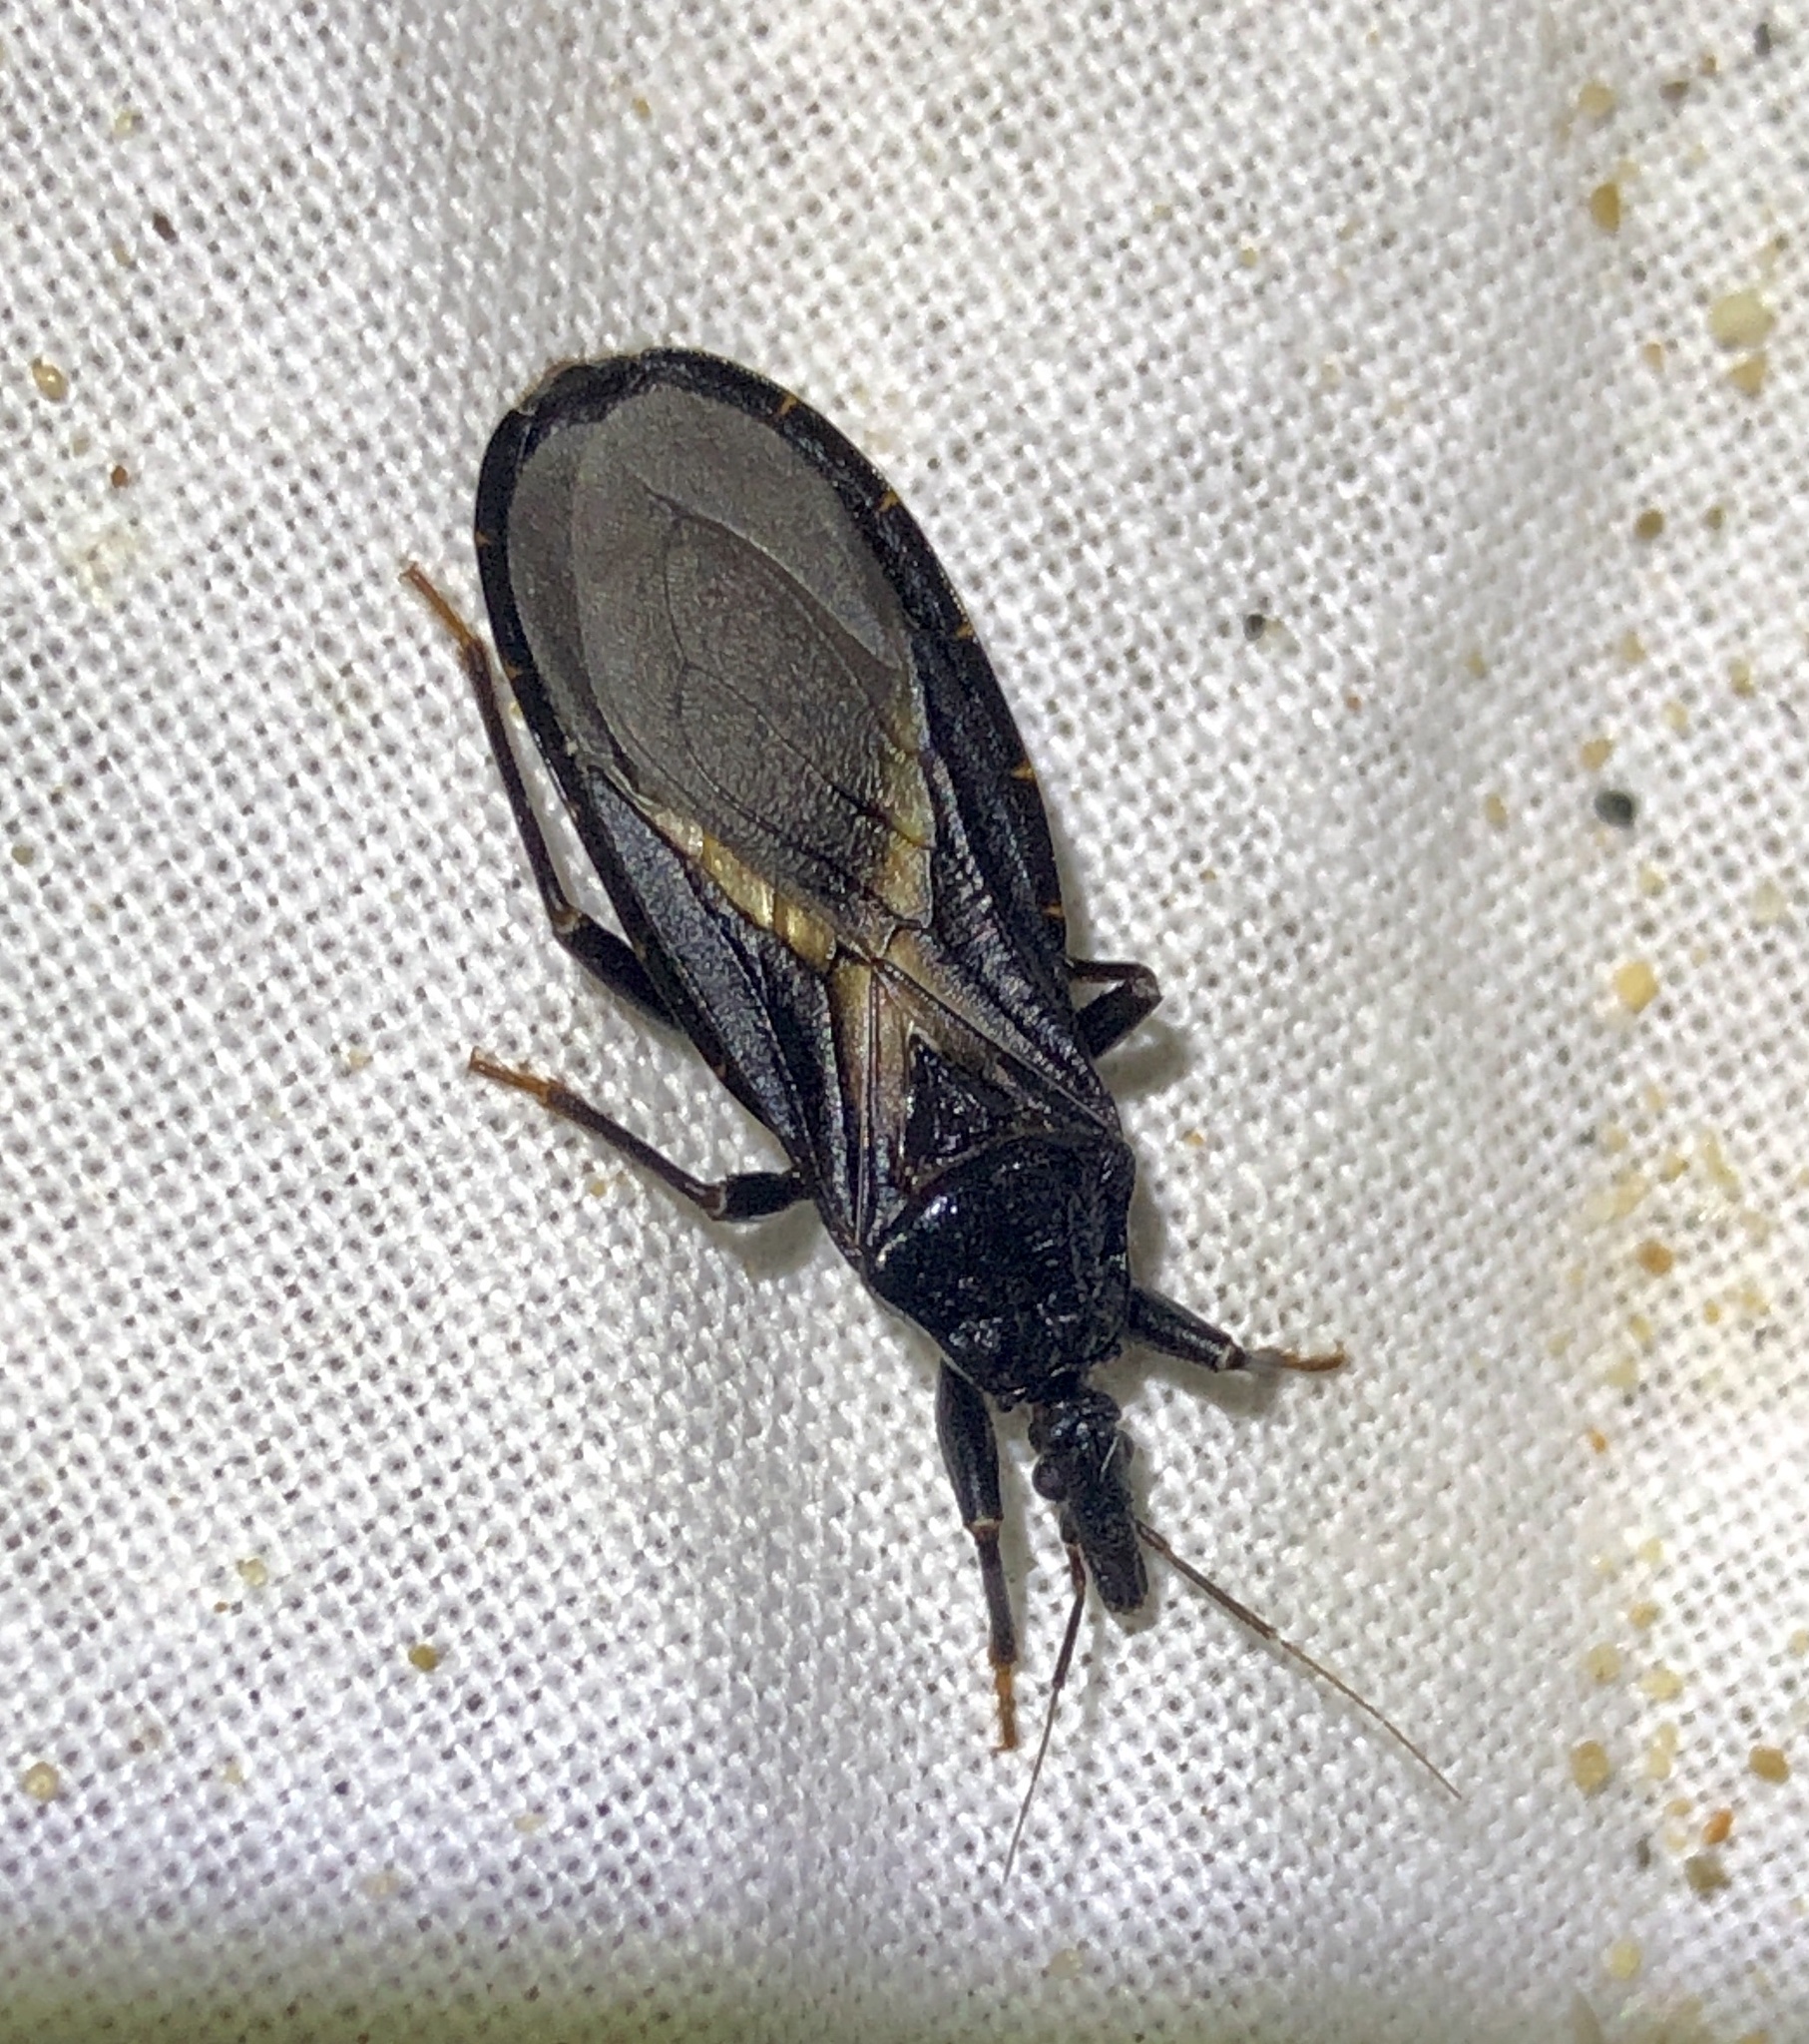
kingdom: Animalia
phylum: Arthropoda
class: Insecta
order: Hemiptera
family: Reduviidae
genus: Triatoma
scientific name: Triatoma protracta
